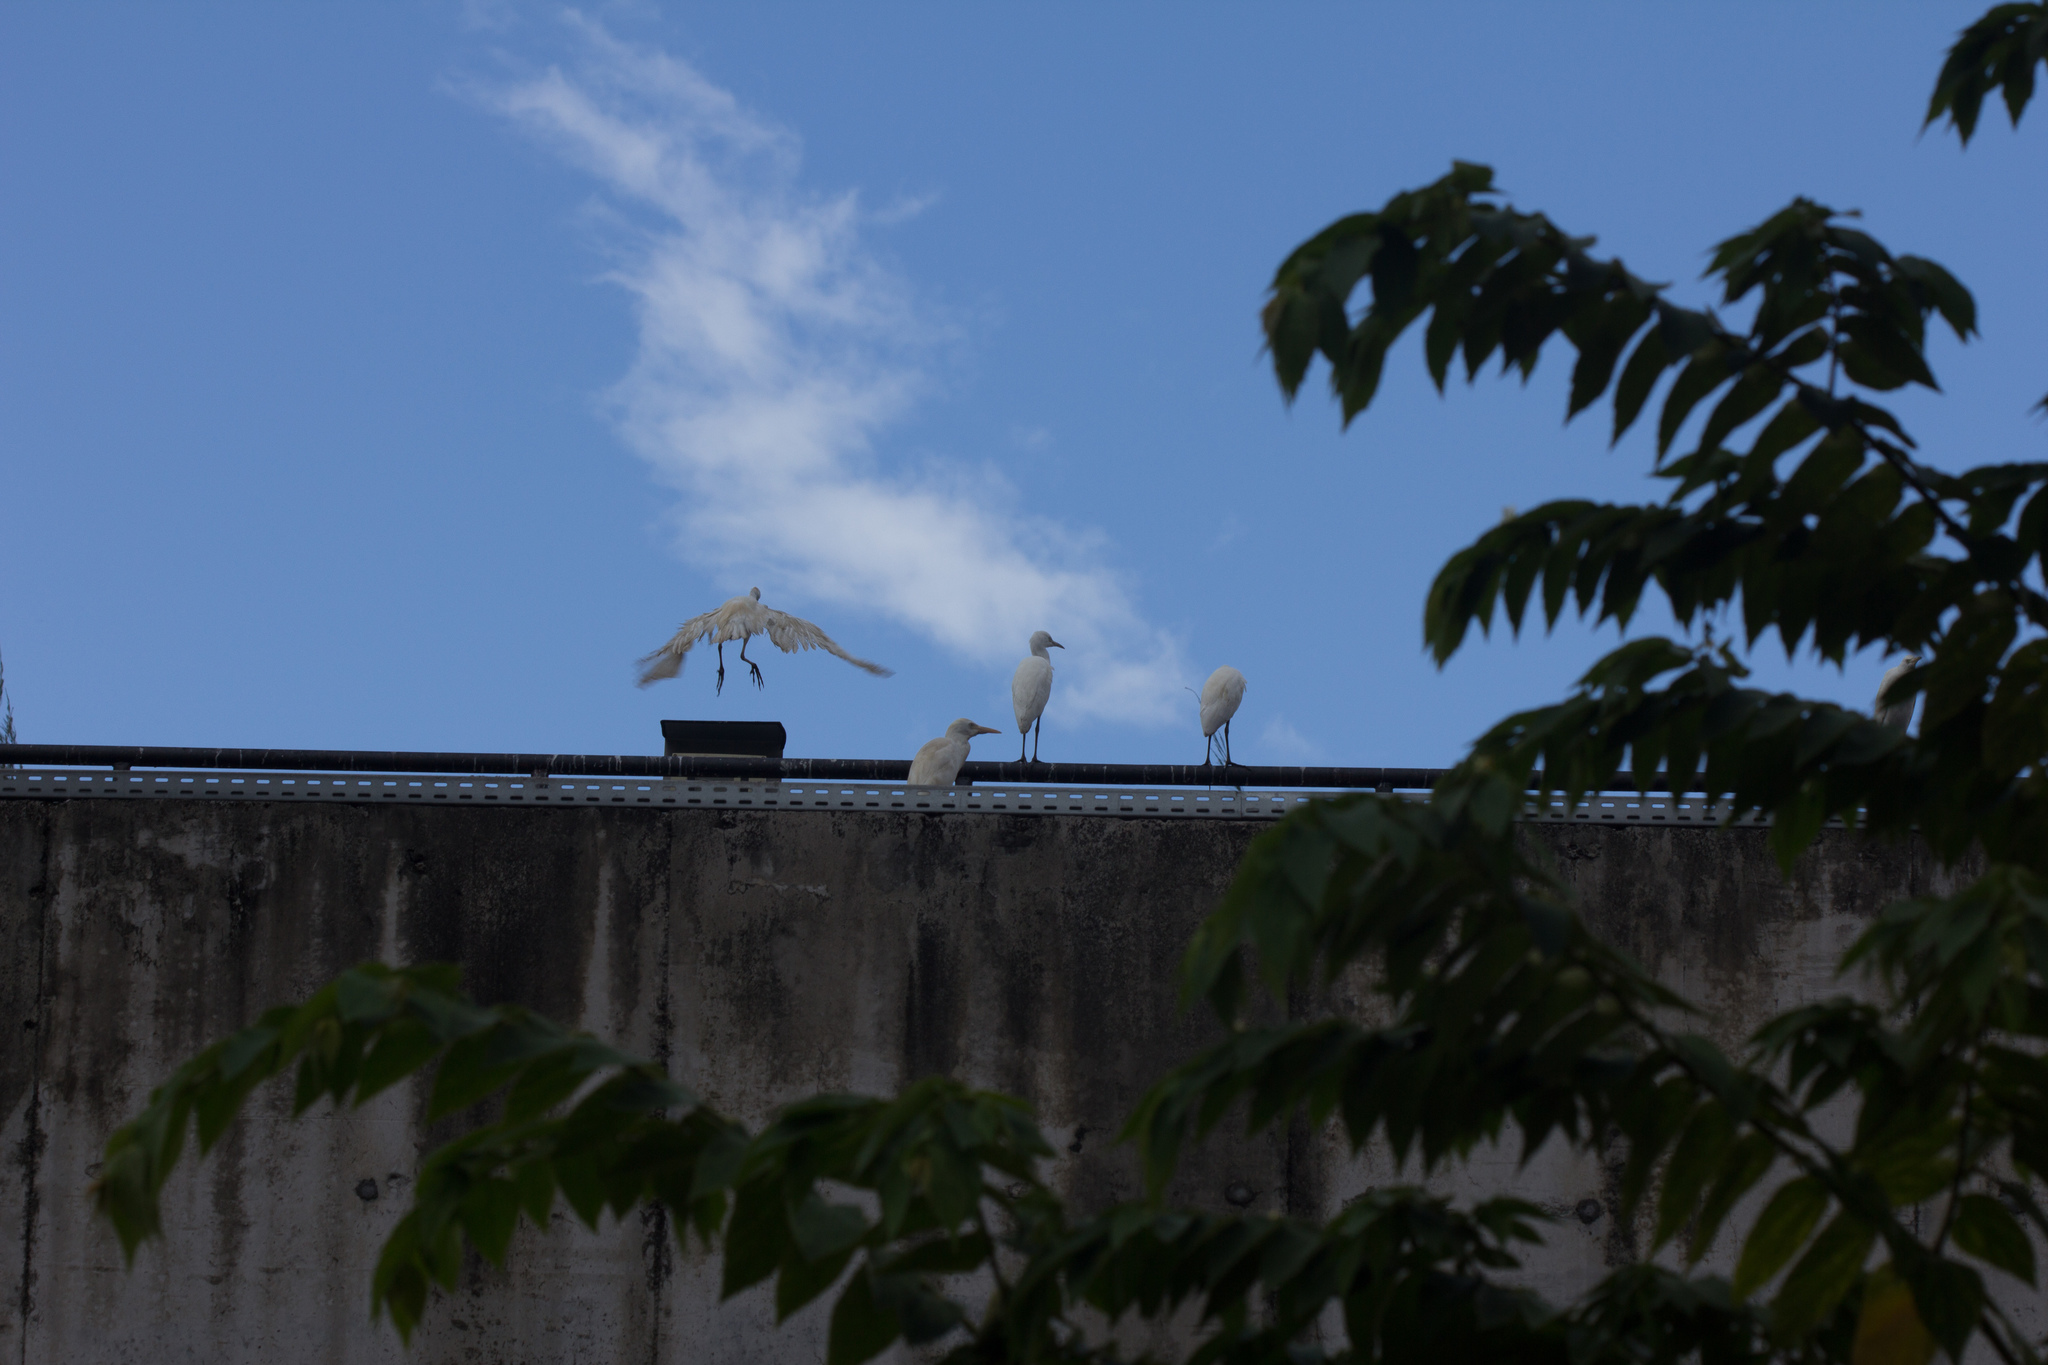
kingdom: Animalia
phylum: Chordata
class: Aves
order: Pelecaniformes
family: Ardeidae
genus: Bubulcus
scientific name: Bubulcus ibis
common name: Cattle egret
